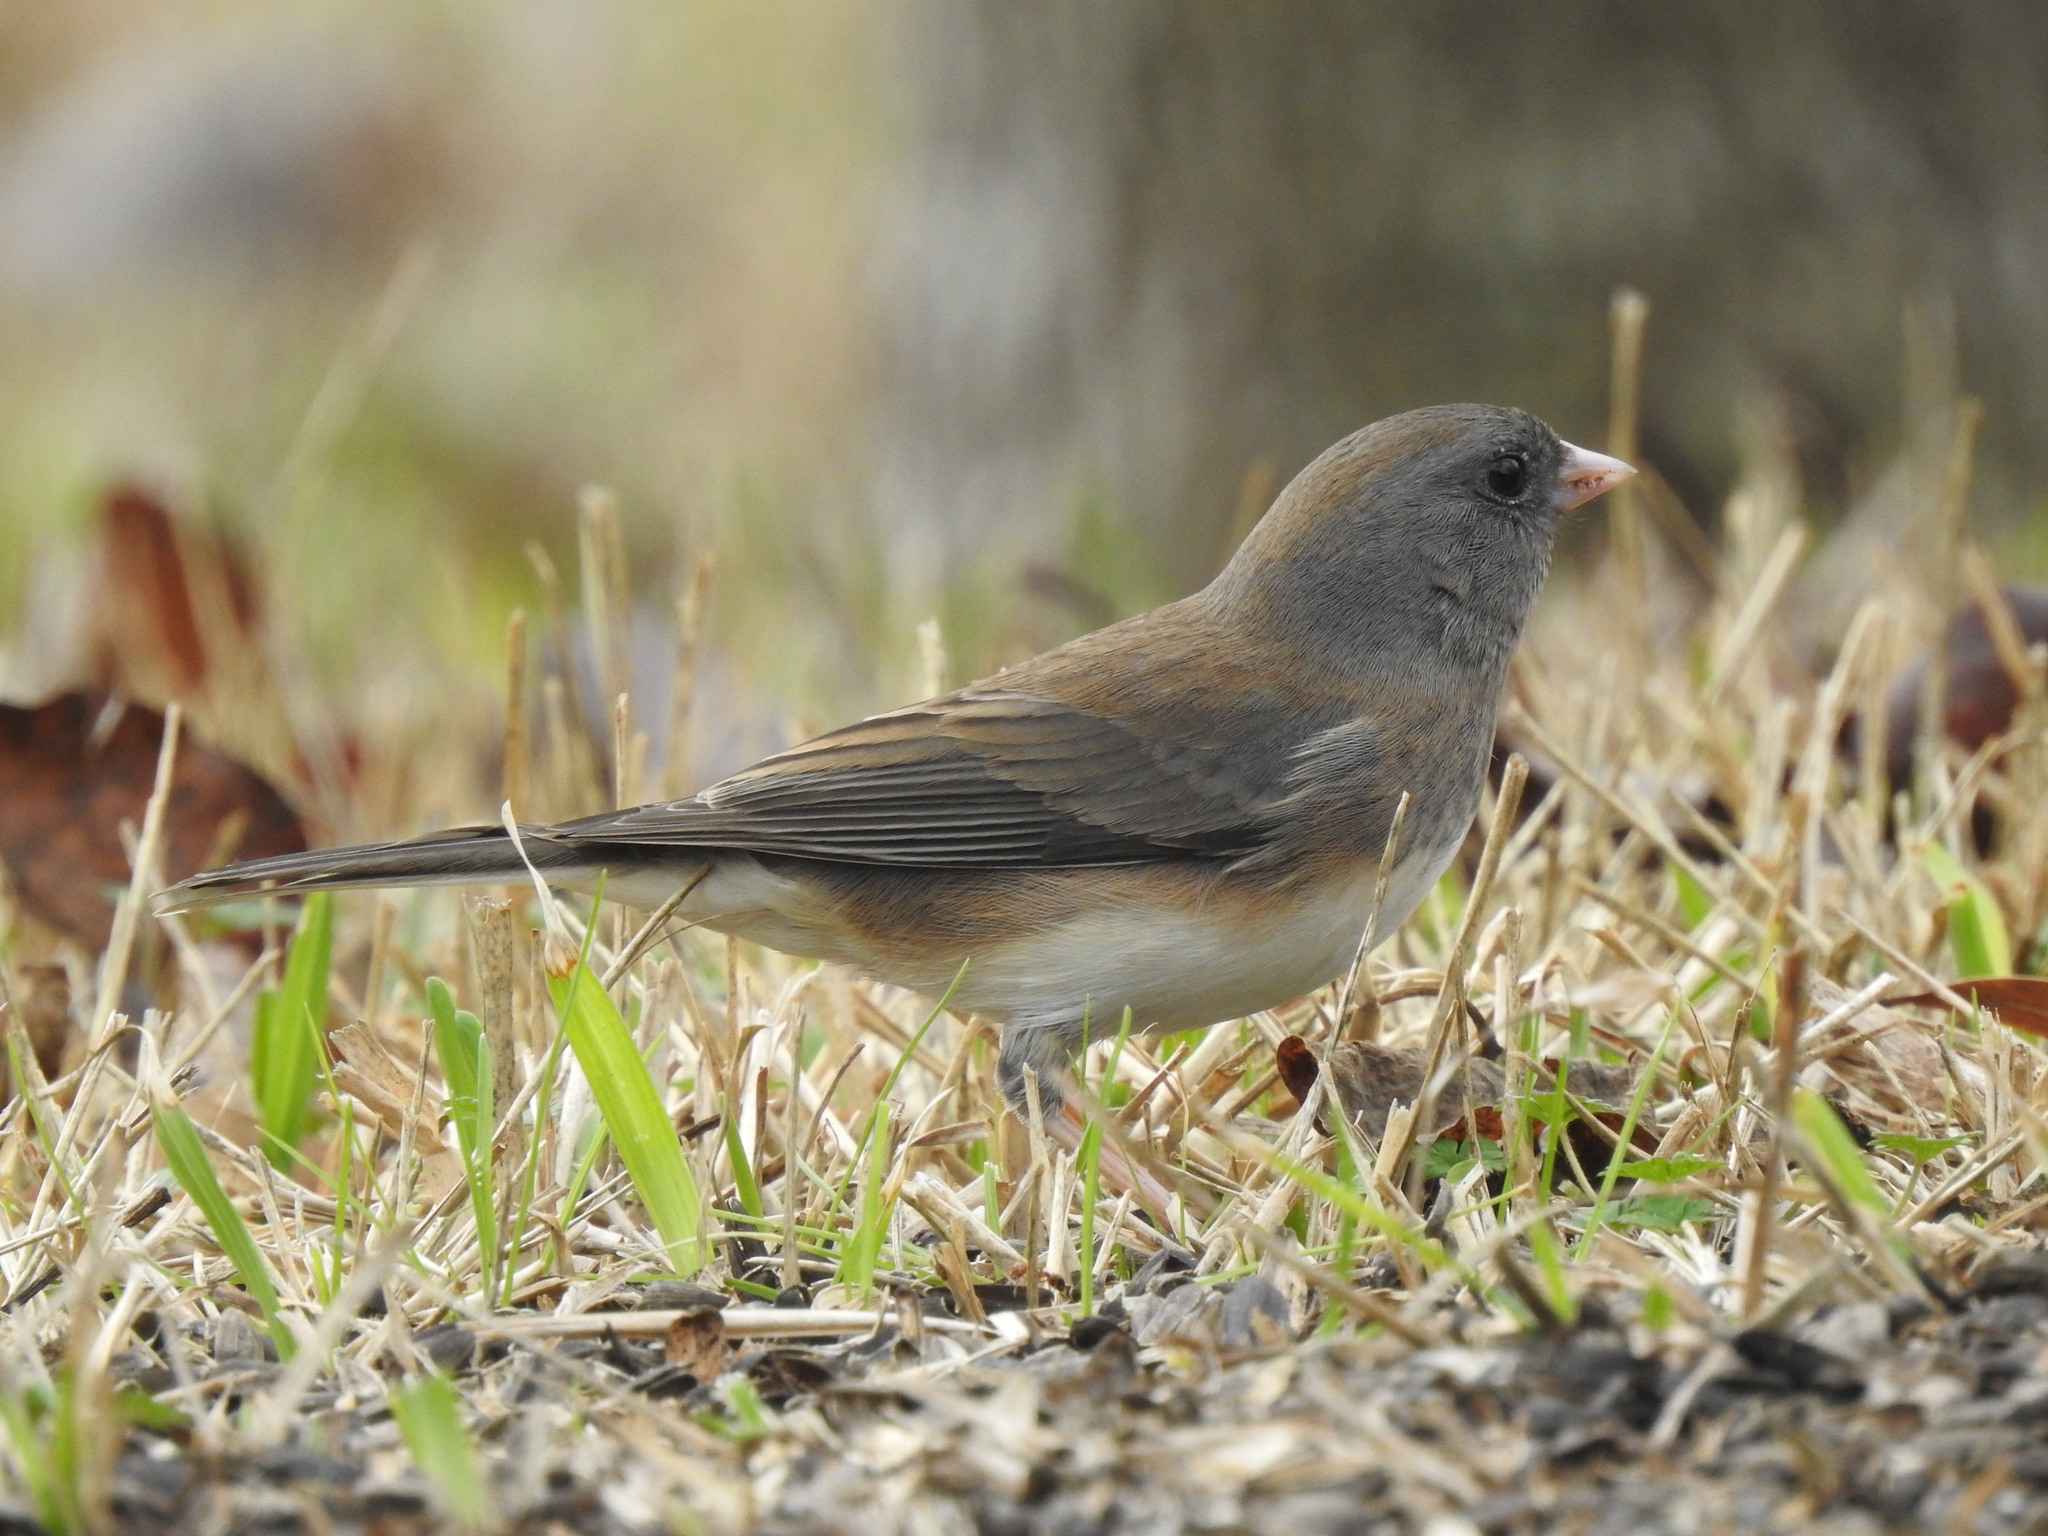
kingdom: Animalia
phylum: Chordata
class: Aves
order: Passeriformes
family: Passerellidae
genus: Junco
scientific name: Junco hyemalis
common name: Dark-eyed junco
